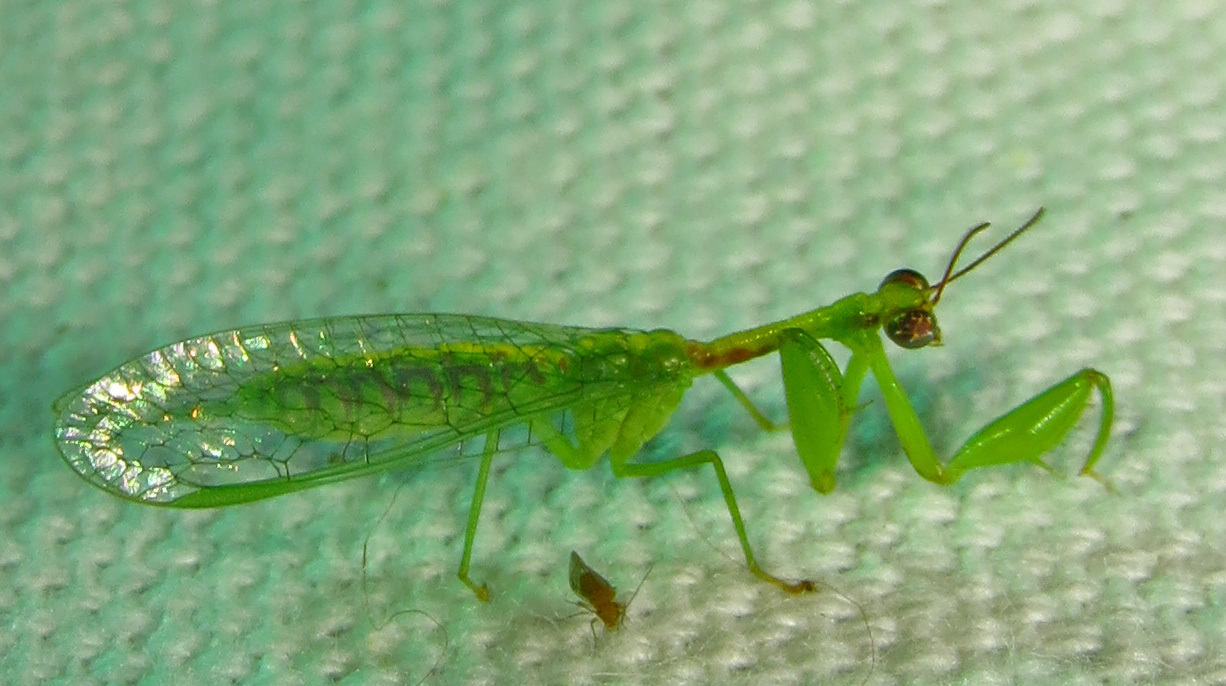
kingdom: Animalia
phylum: Arthropoda
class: Insecta
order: Neuroptera
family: Mantispidae
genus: Zeugomantispa
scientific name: Zeugomantispa minuta
